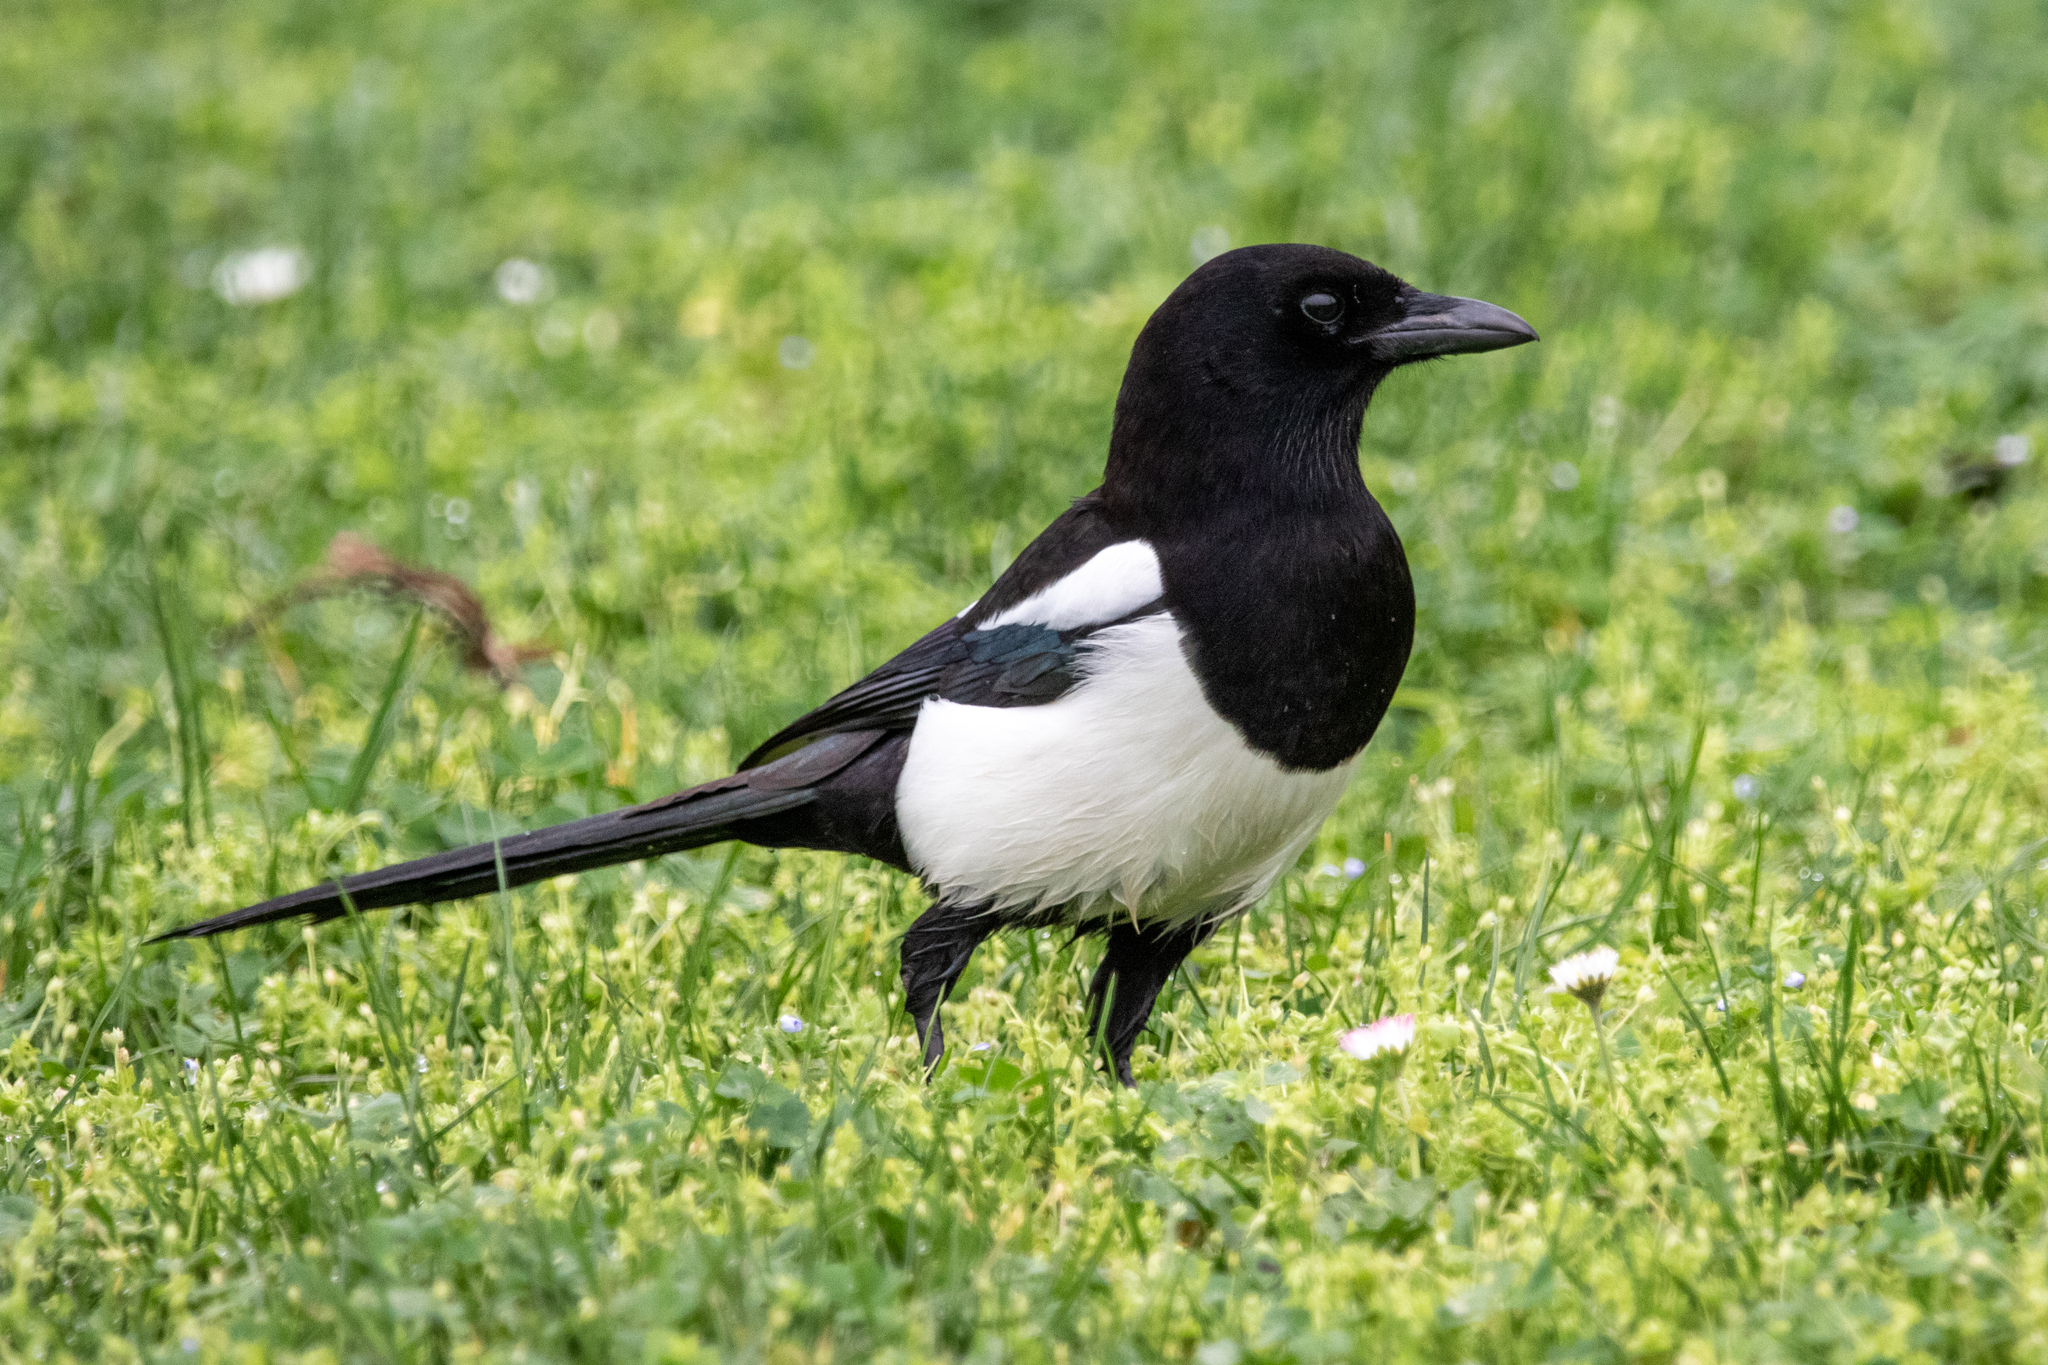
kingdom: Animalia
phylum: Chordata
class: Aves
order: Passeriformes
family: Corvidae
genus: Pica
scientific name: Pica pica
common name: Eurasian magpie
